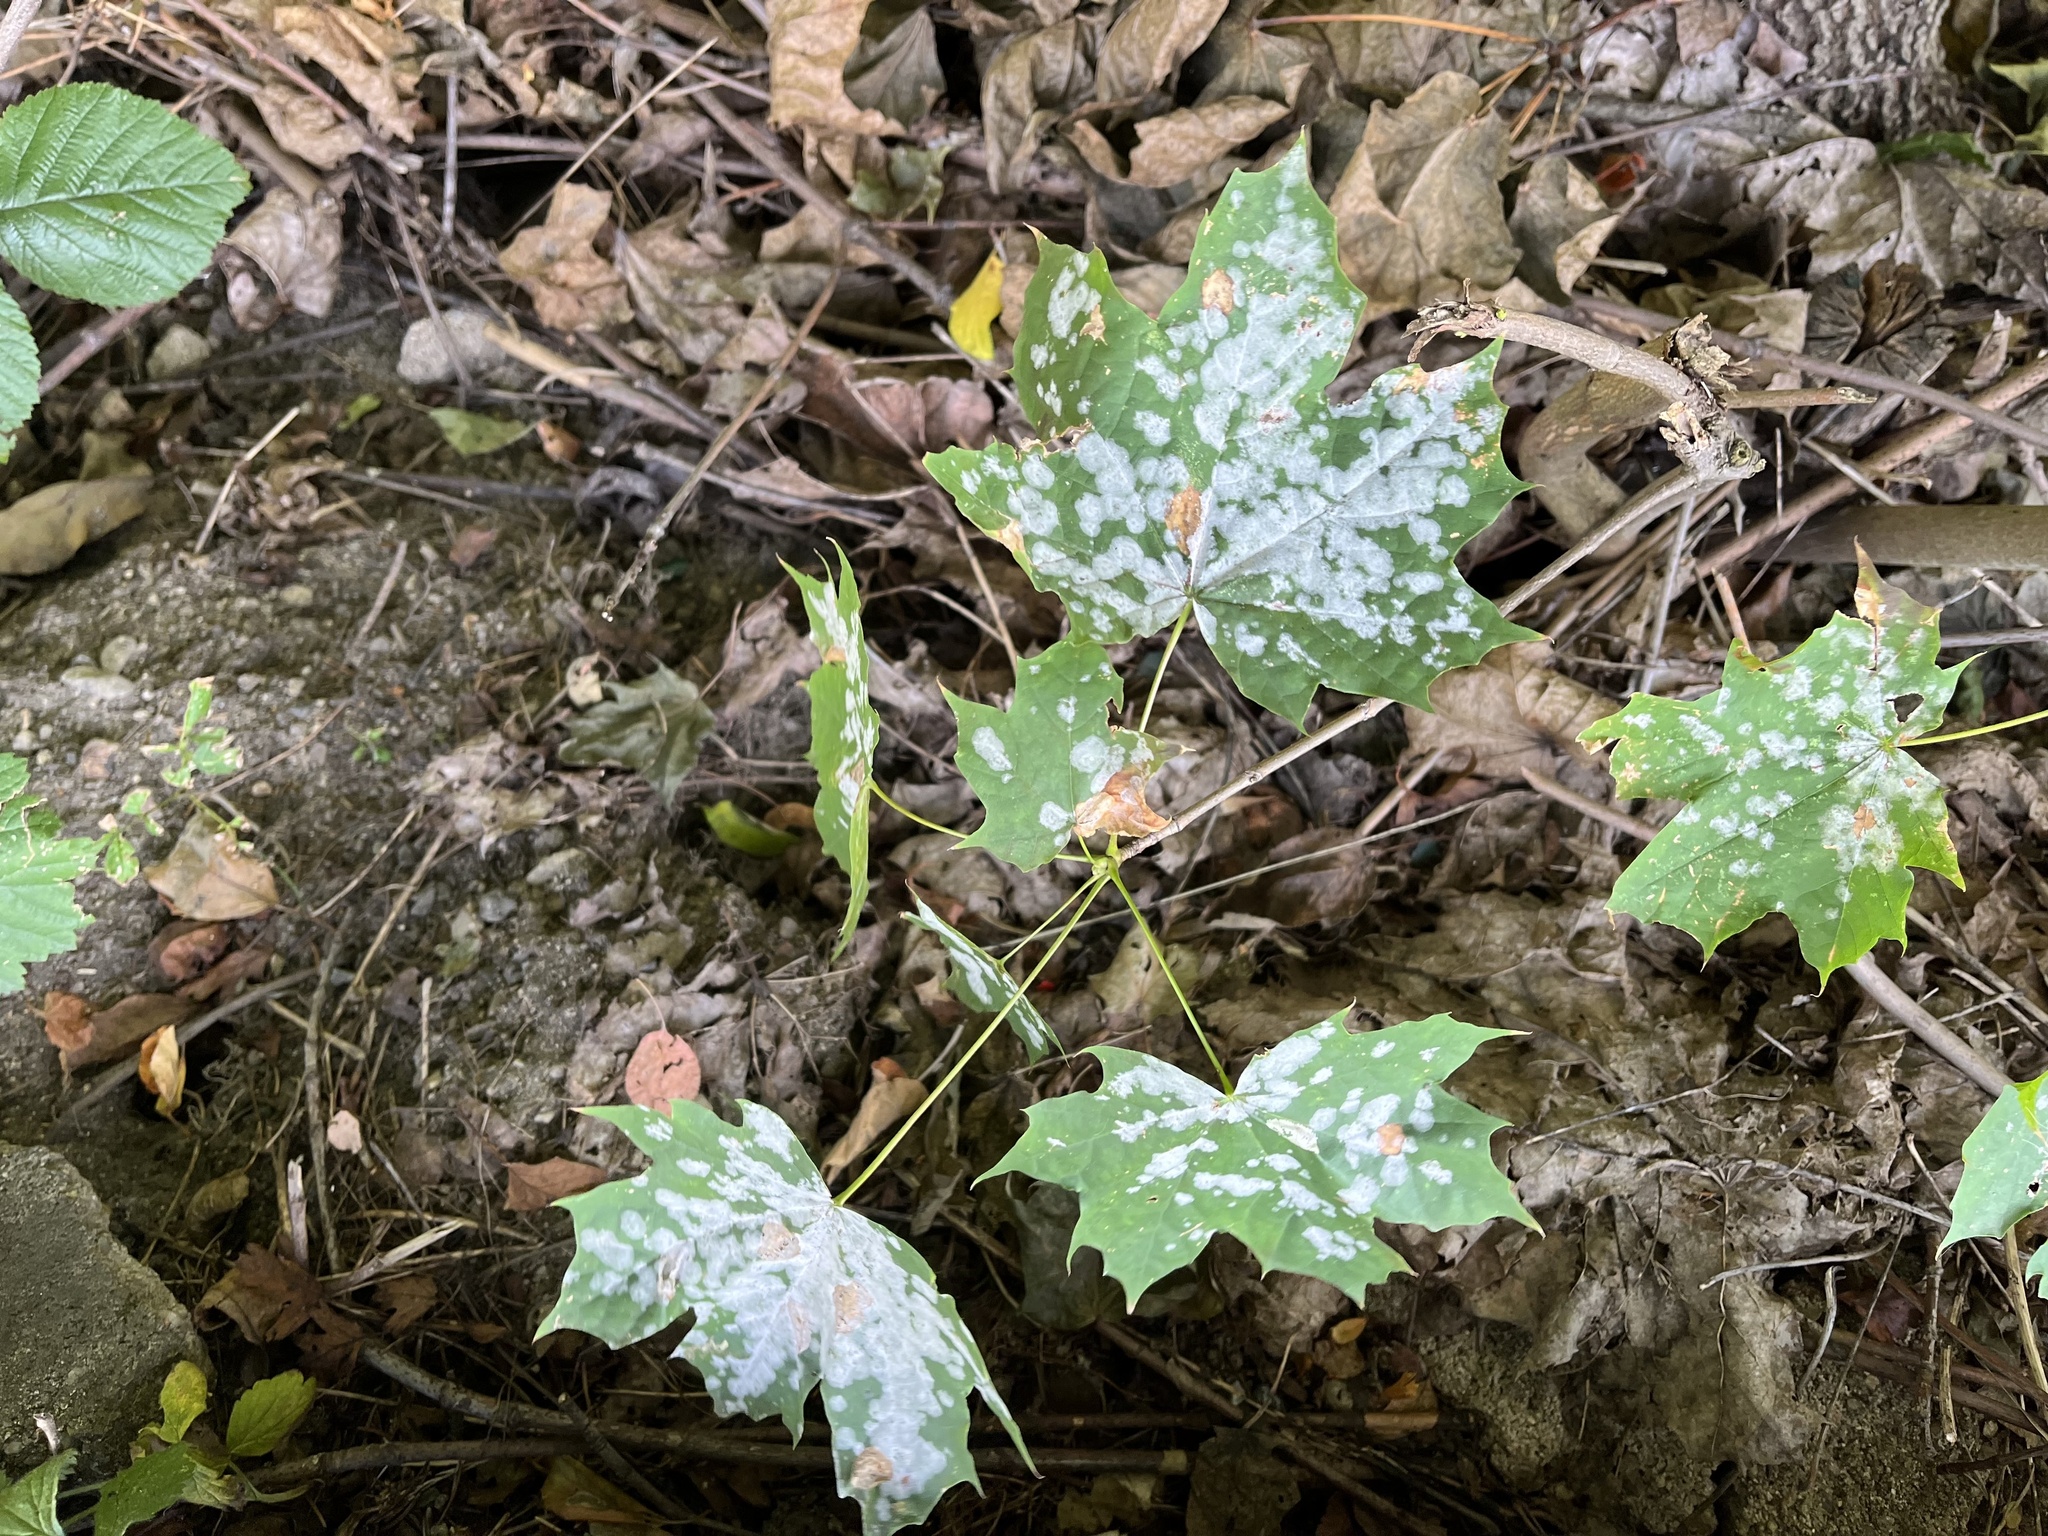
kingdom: Fungi
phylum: Ascomycota
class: Leotiomycetes
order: Helotiales
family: Erysiphaceae
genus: Sawadaea
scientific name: Sawadaea tulasnei
